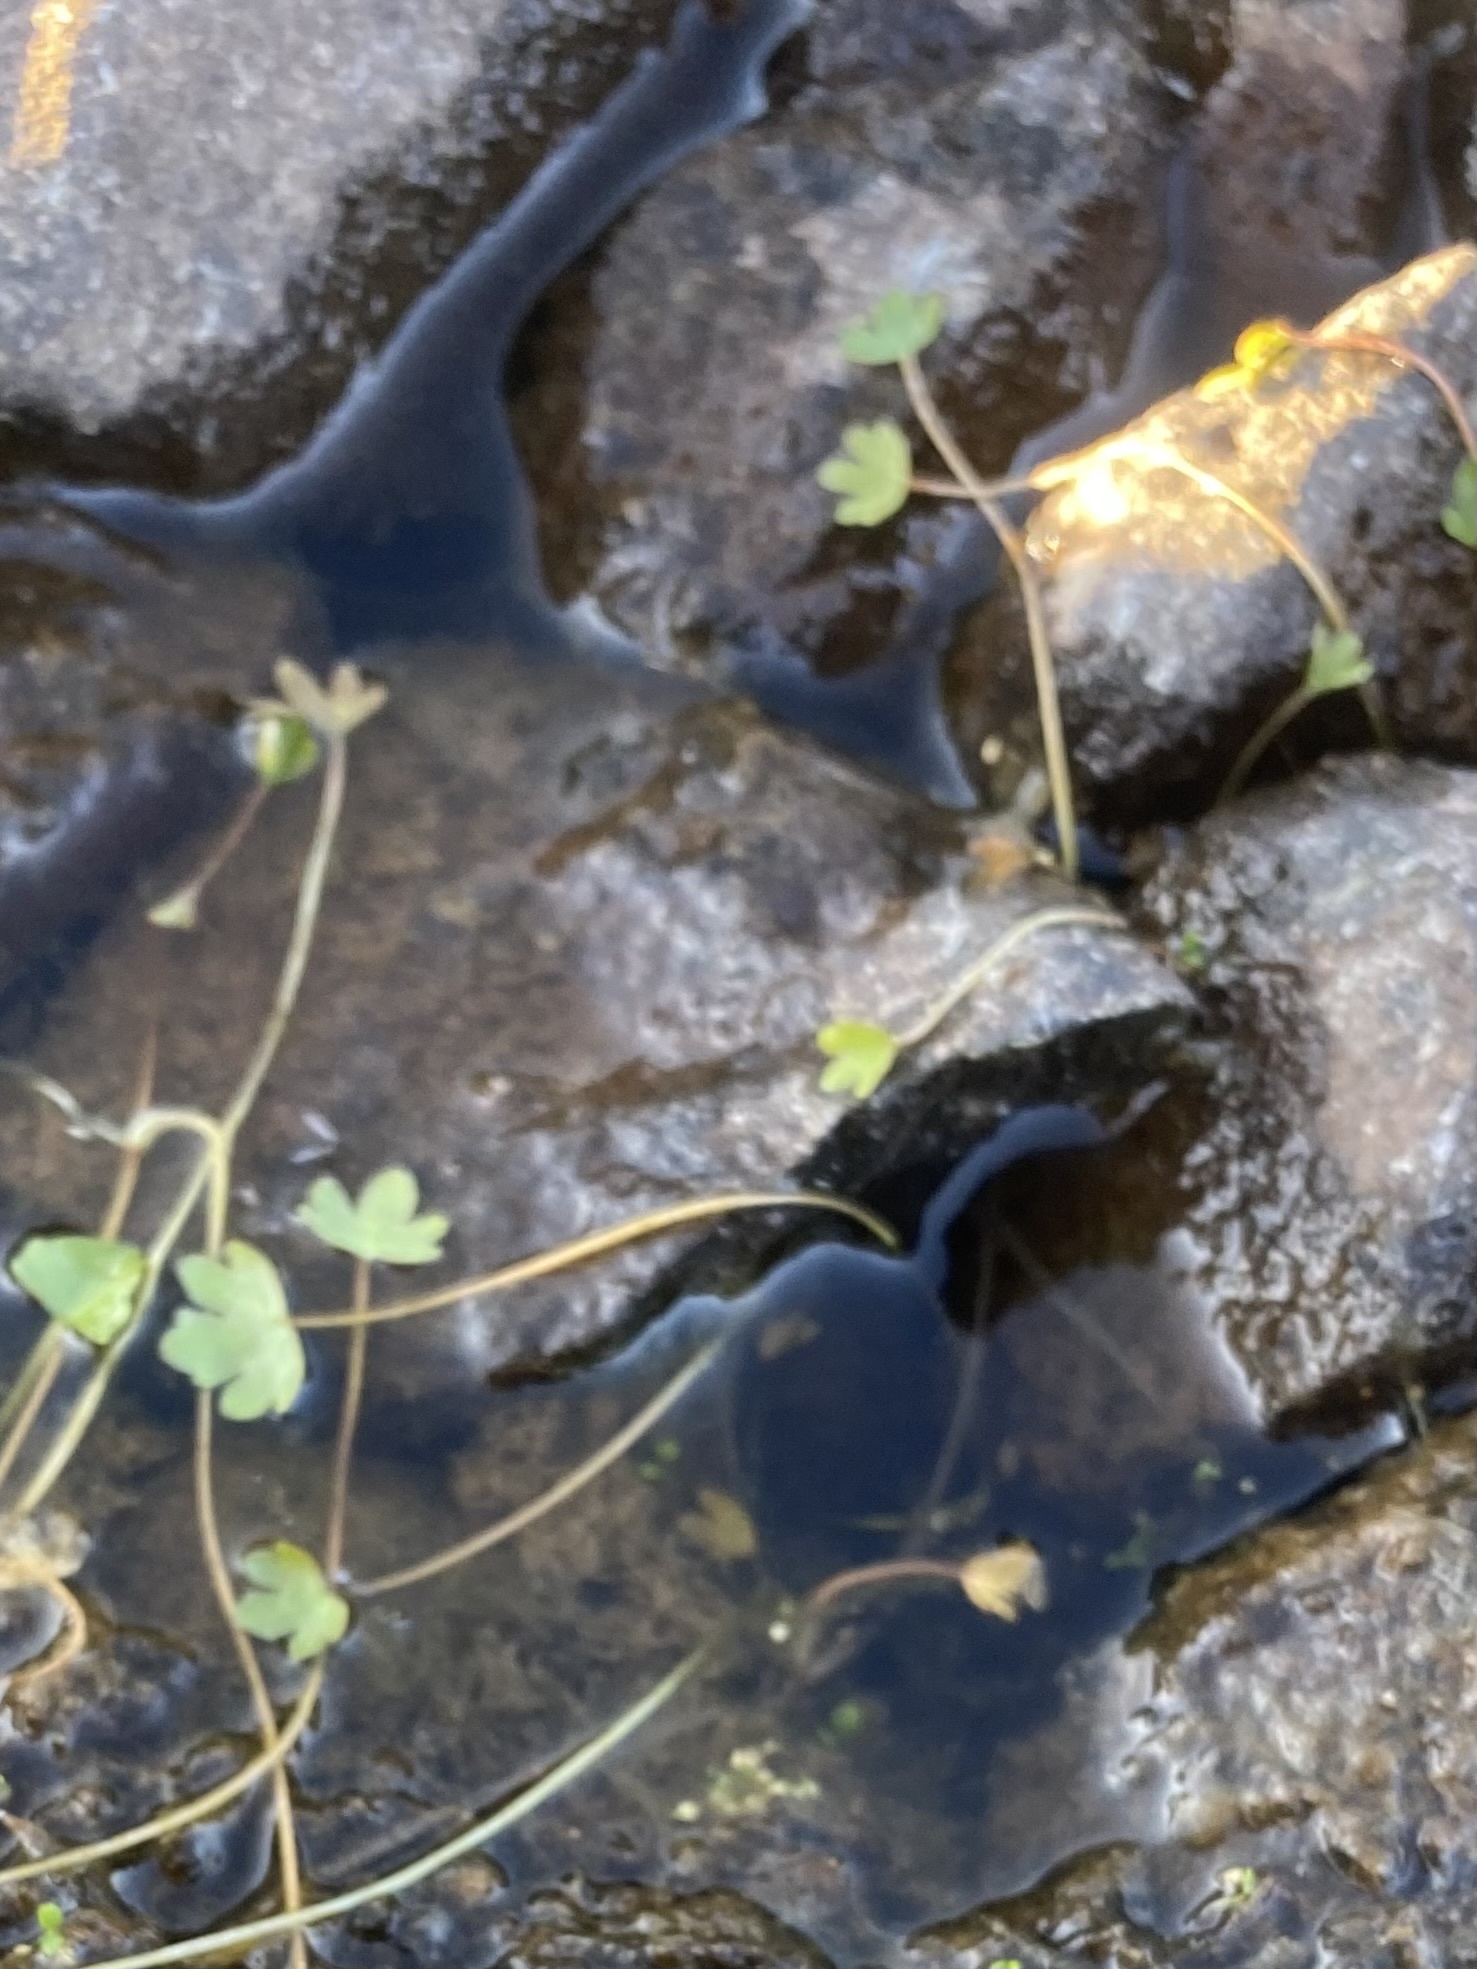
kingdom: Plantae
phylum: Tracheophyta
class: Magnoliopsida
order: Ranunculales
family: Ranunculaceae
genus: Ranunculus
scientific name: Ranunculus hyperboreus
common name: Arctic buttercup
